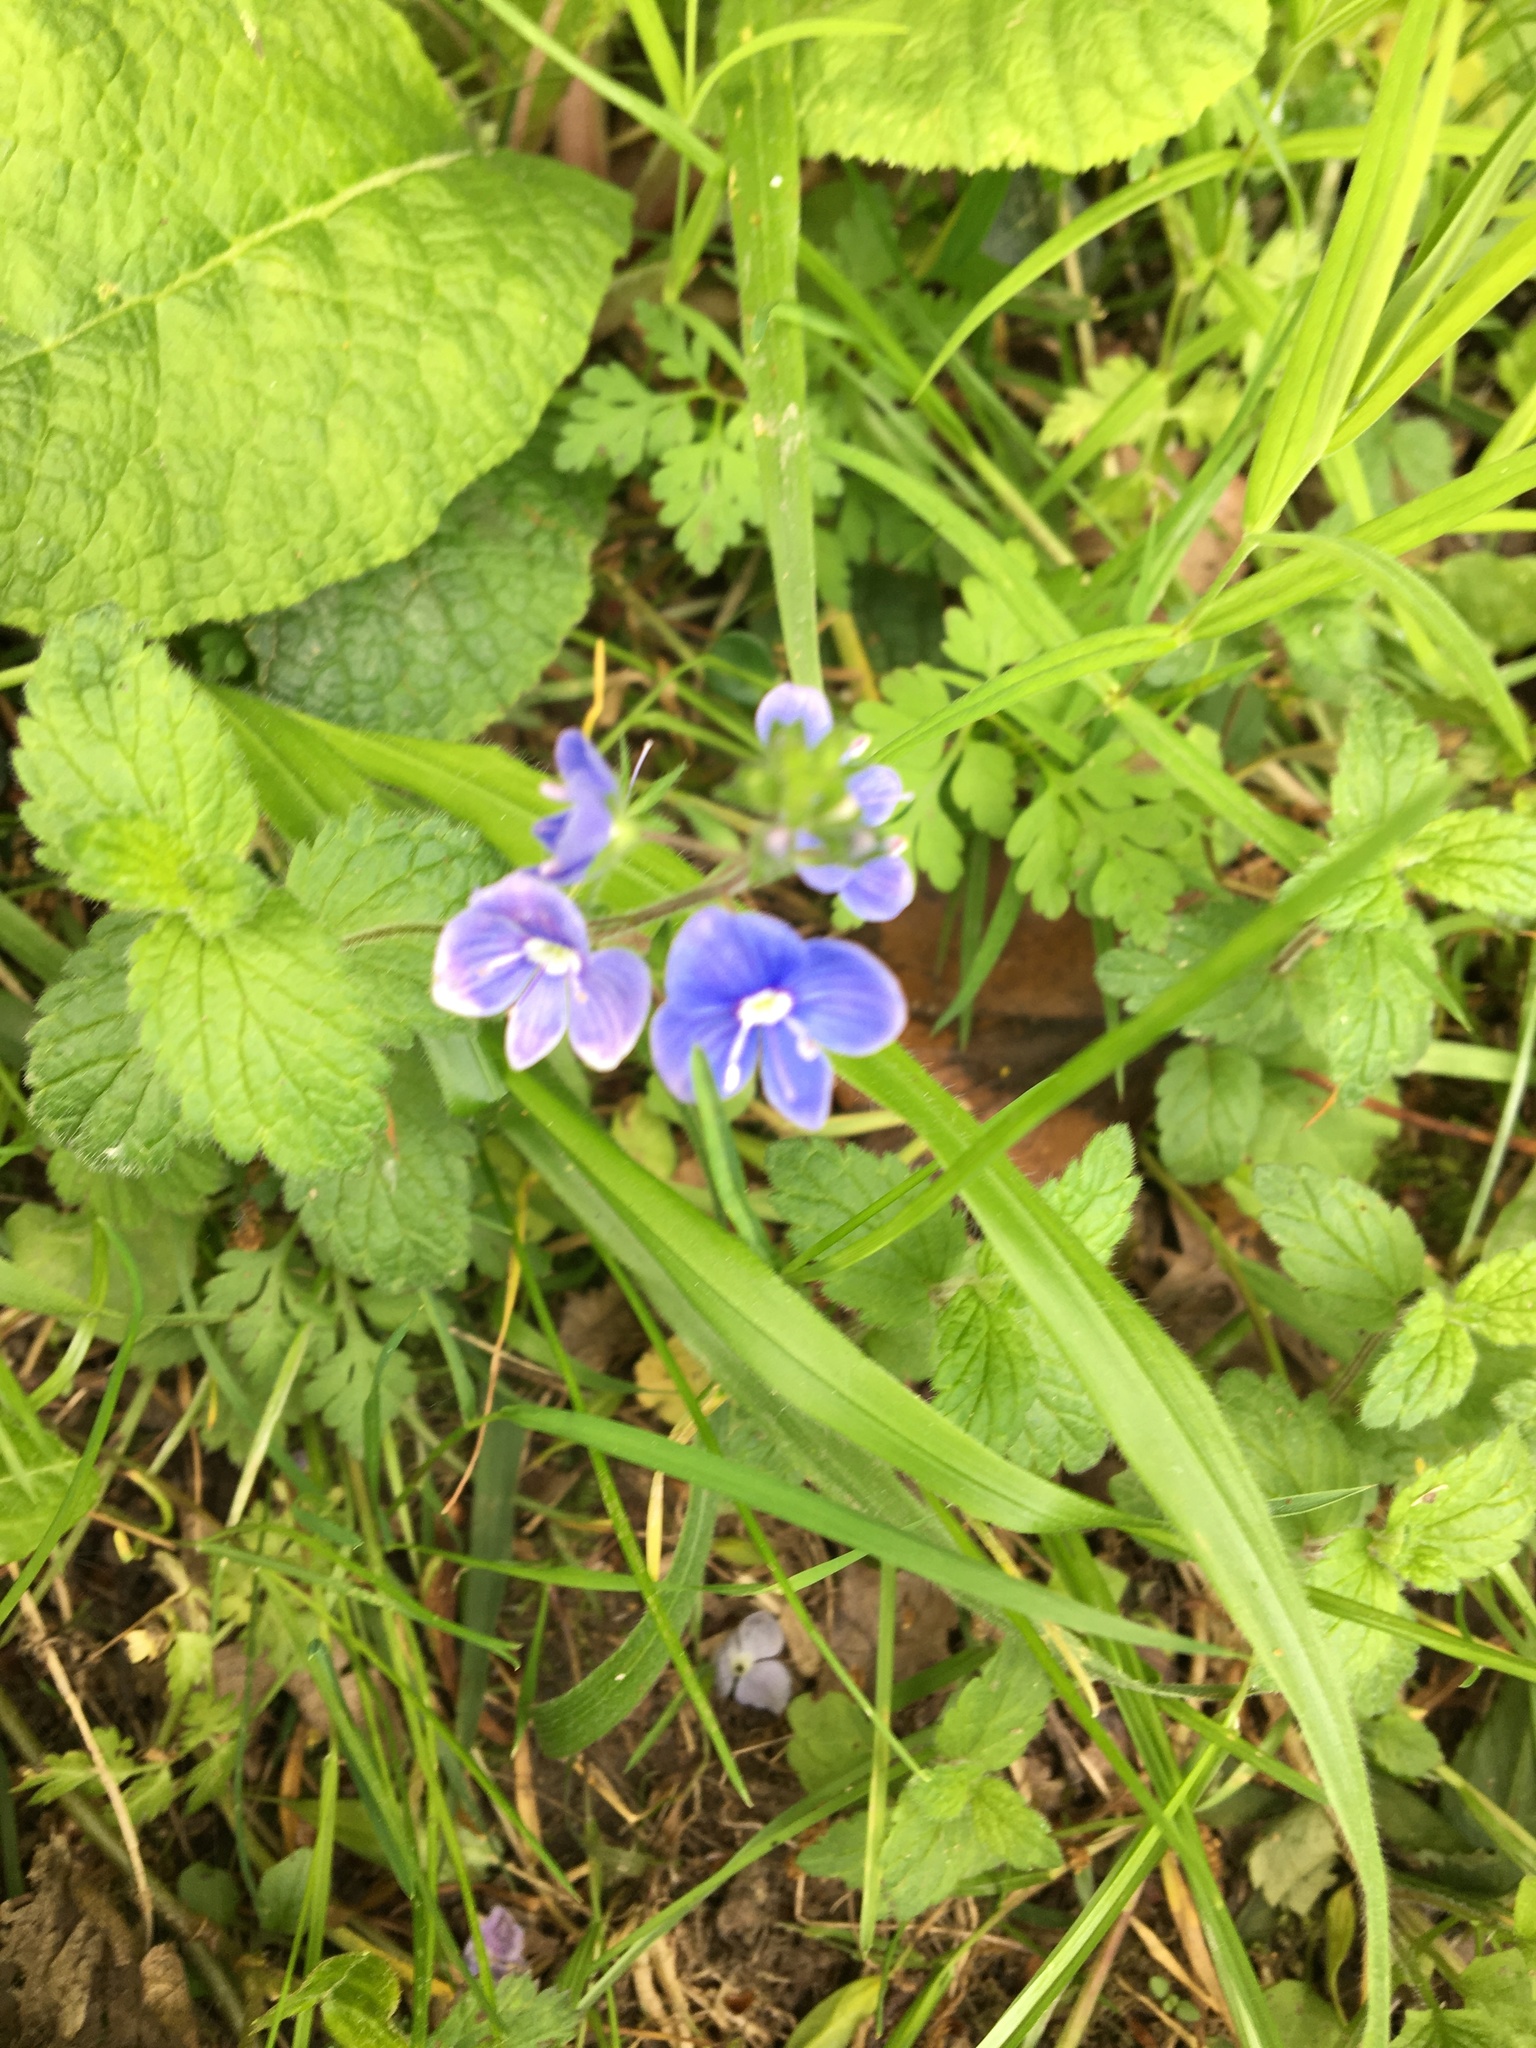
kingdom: Plantae
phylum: Tracheophyta
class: Magnoliopsida
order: Lamiales
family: Plantaginaceae
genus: Veronica
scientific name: Veronica chamaedrys
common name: Germander speedwell
